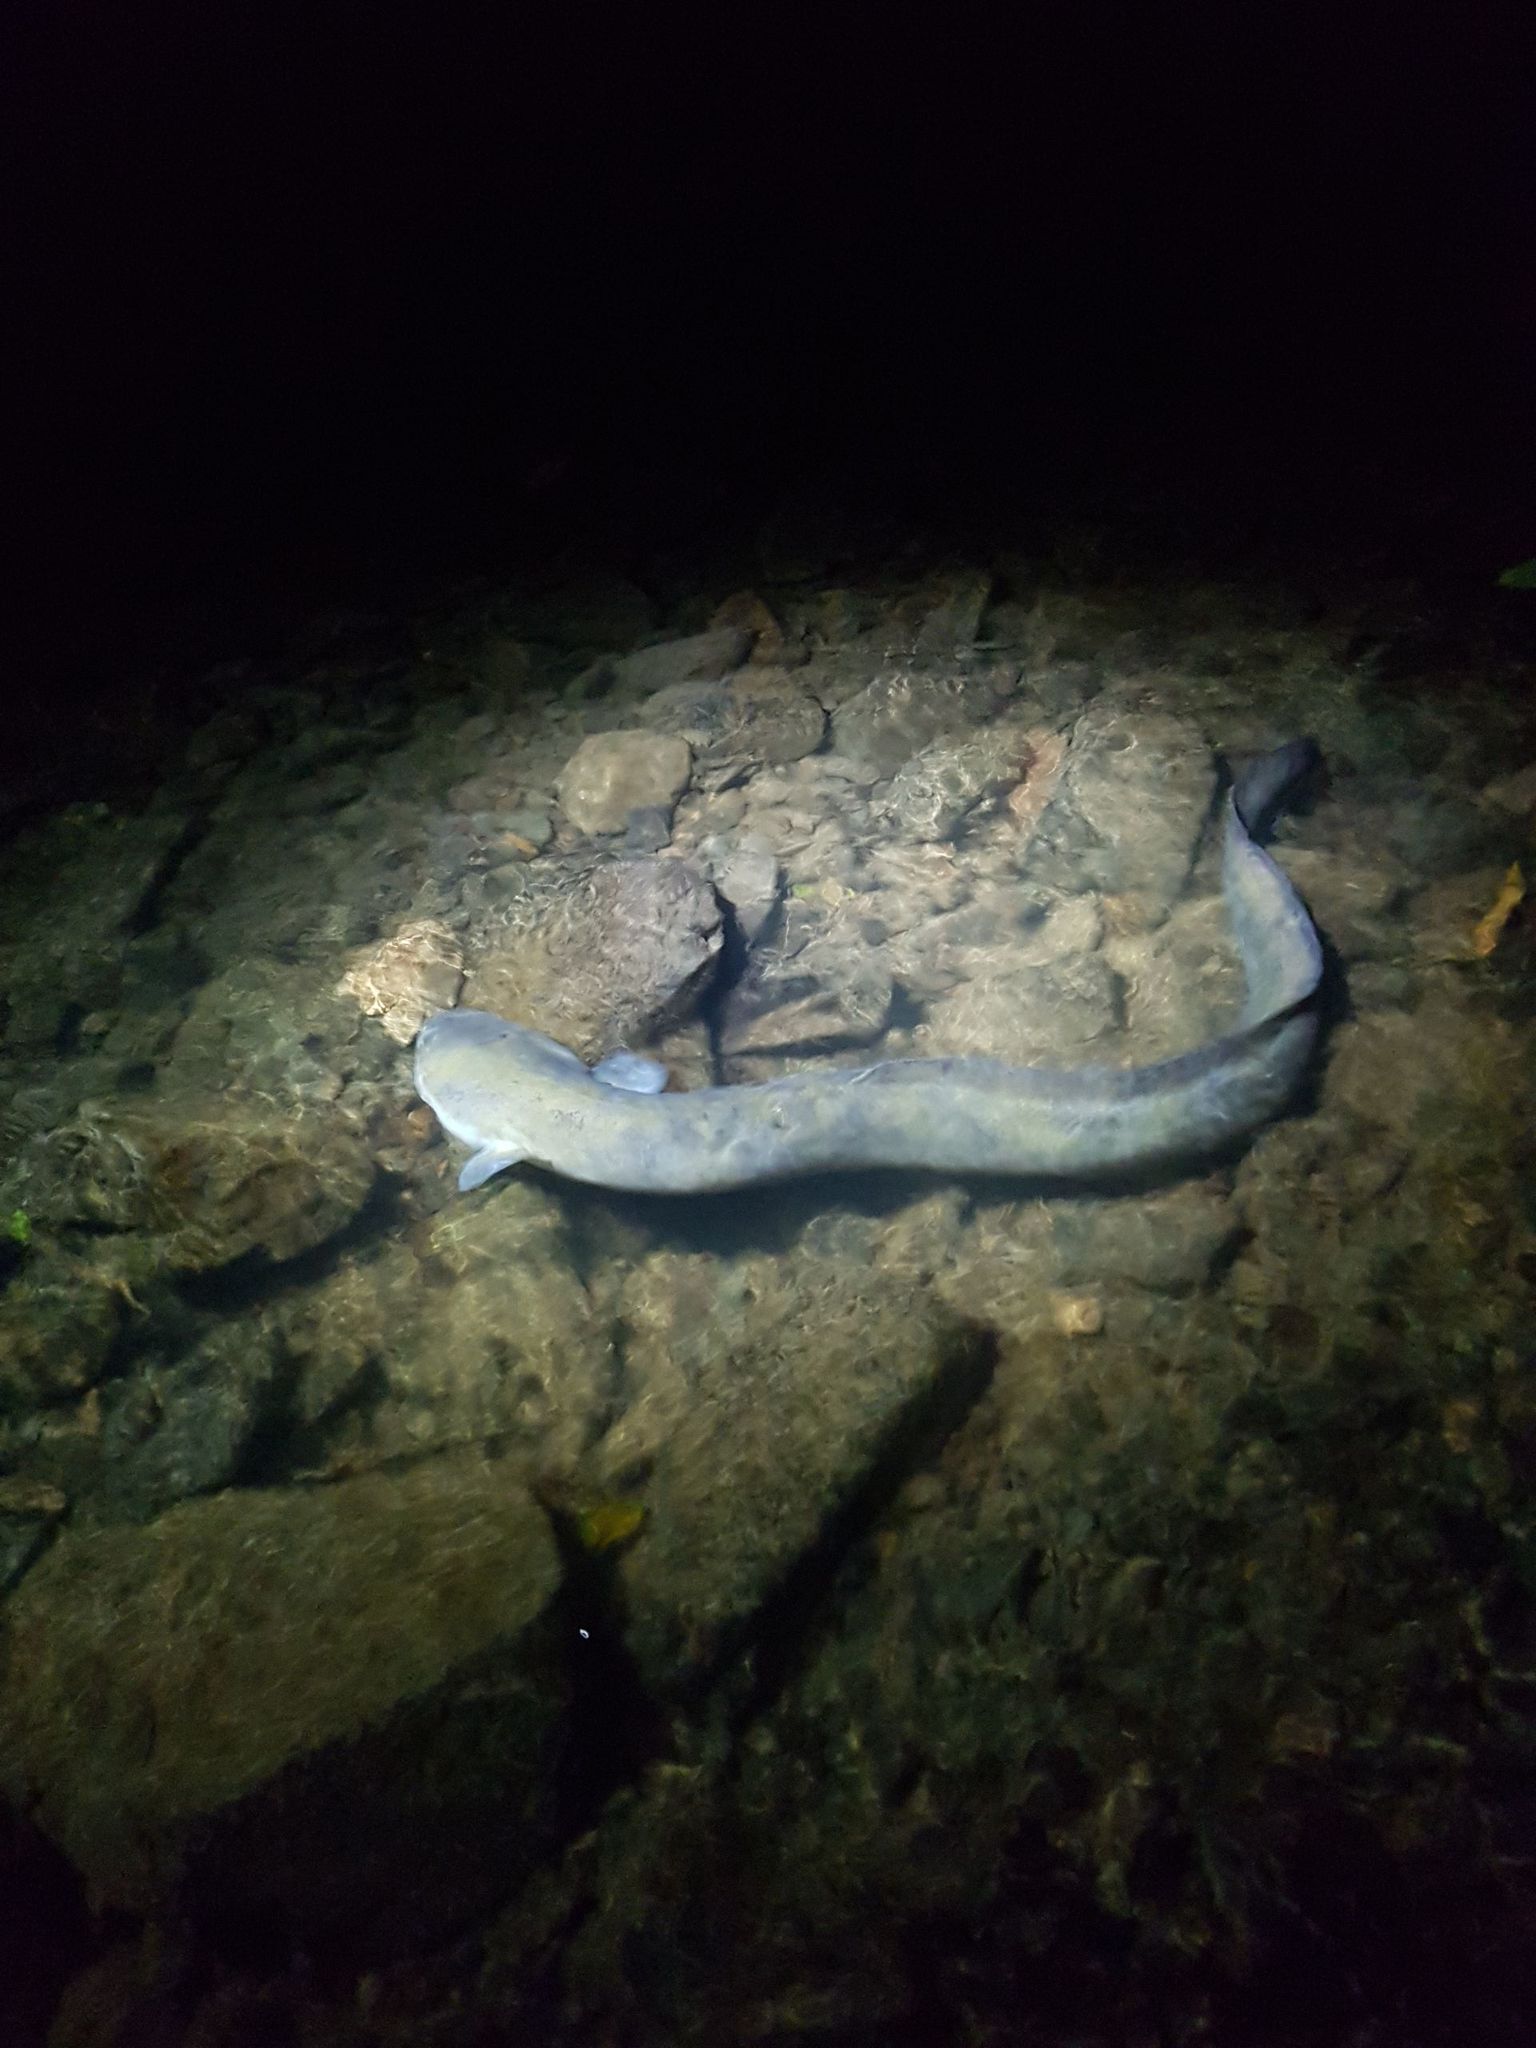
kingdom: Animalia
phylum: Chordata
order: Anguilliformes
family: Anguillidae
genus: Anguilla
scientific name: Anguilla dieffenbachii
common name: New zealand longfin eel
